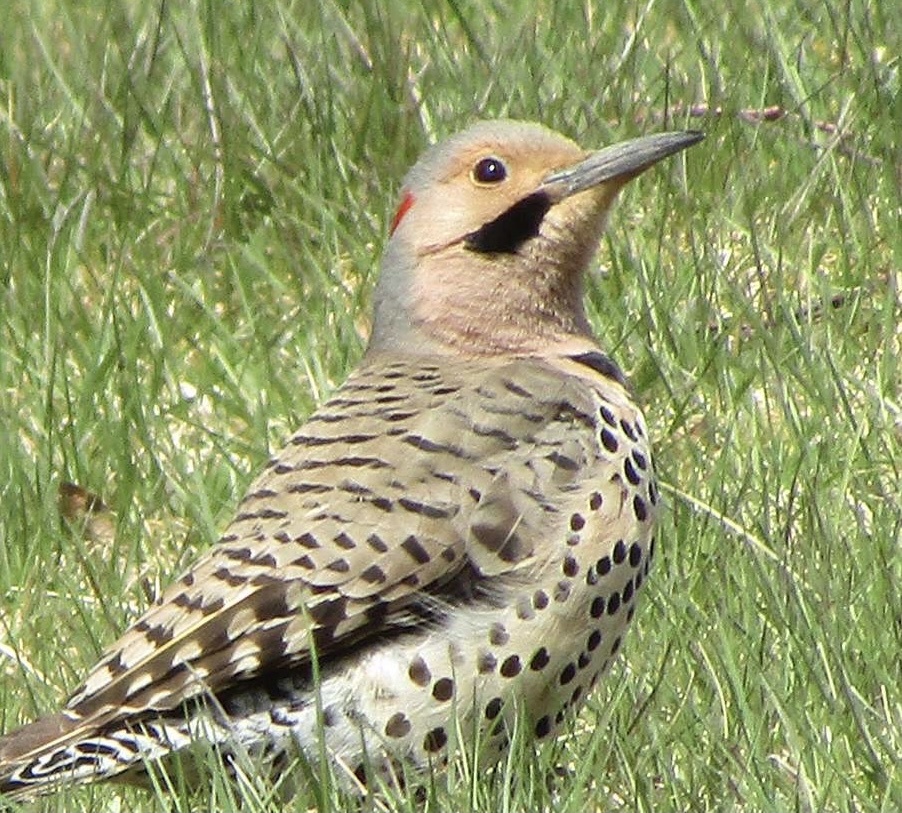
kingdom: Animalia
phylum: Chordata
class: Aves
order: Piciformes
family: Picidae
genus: Colaptes
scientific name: Colaptes auratus
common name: Northern flicker
